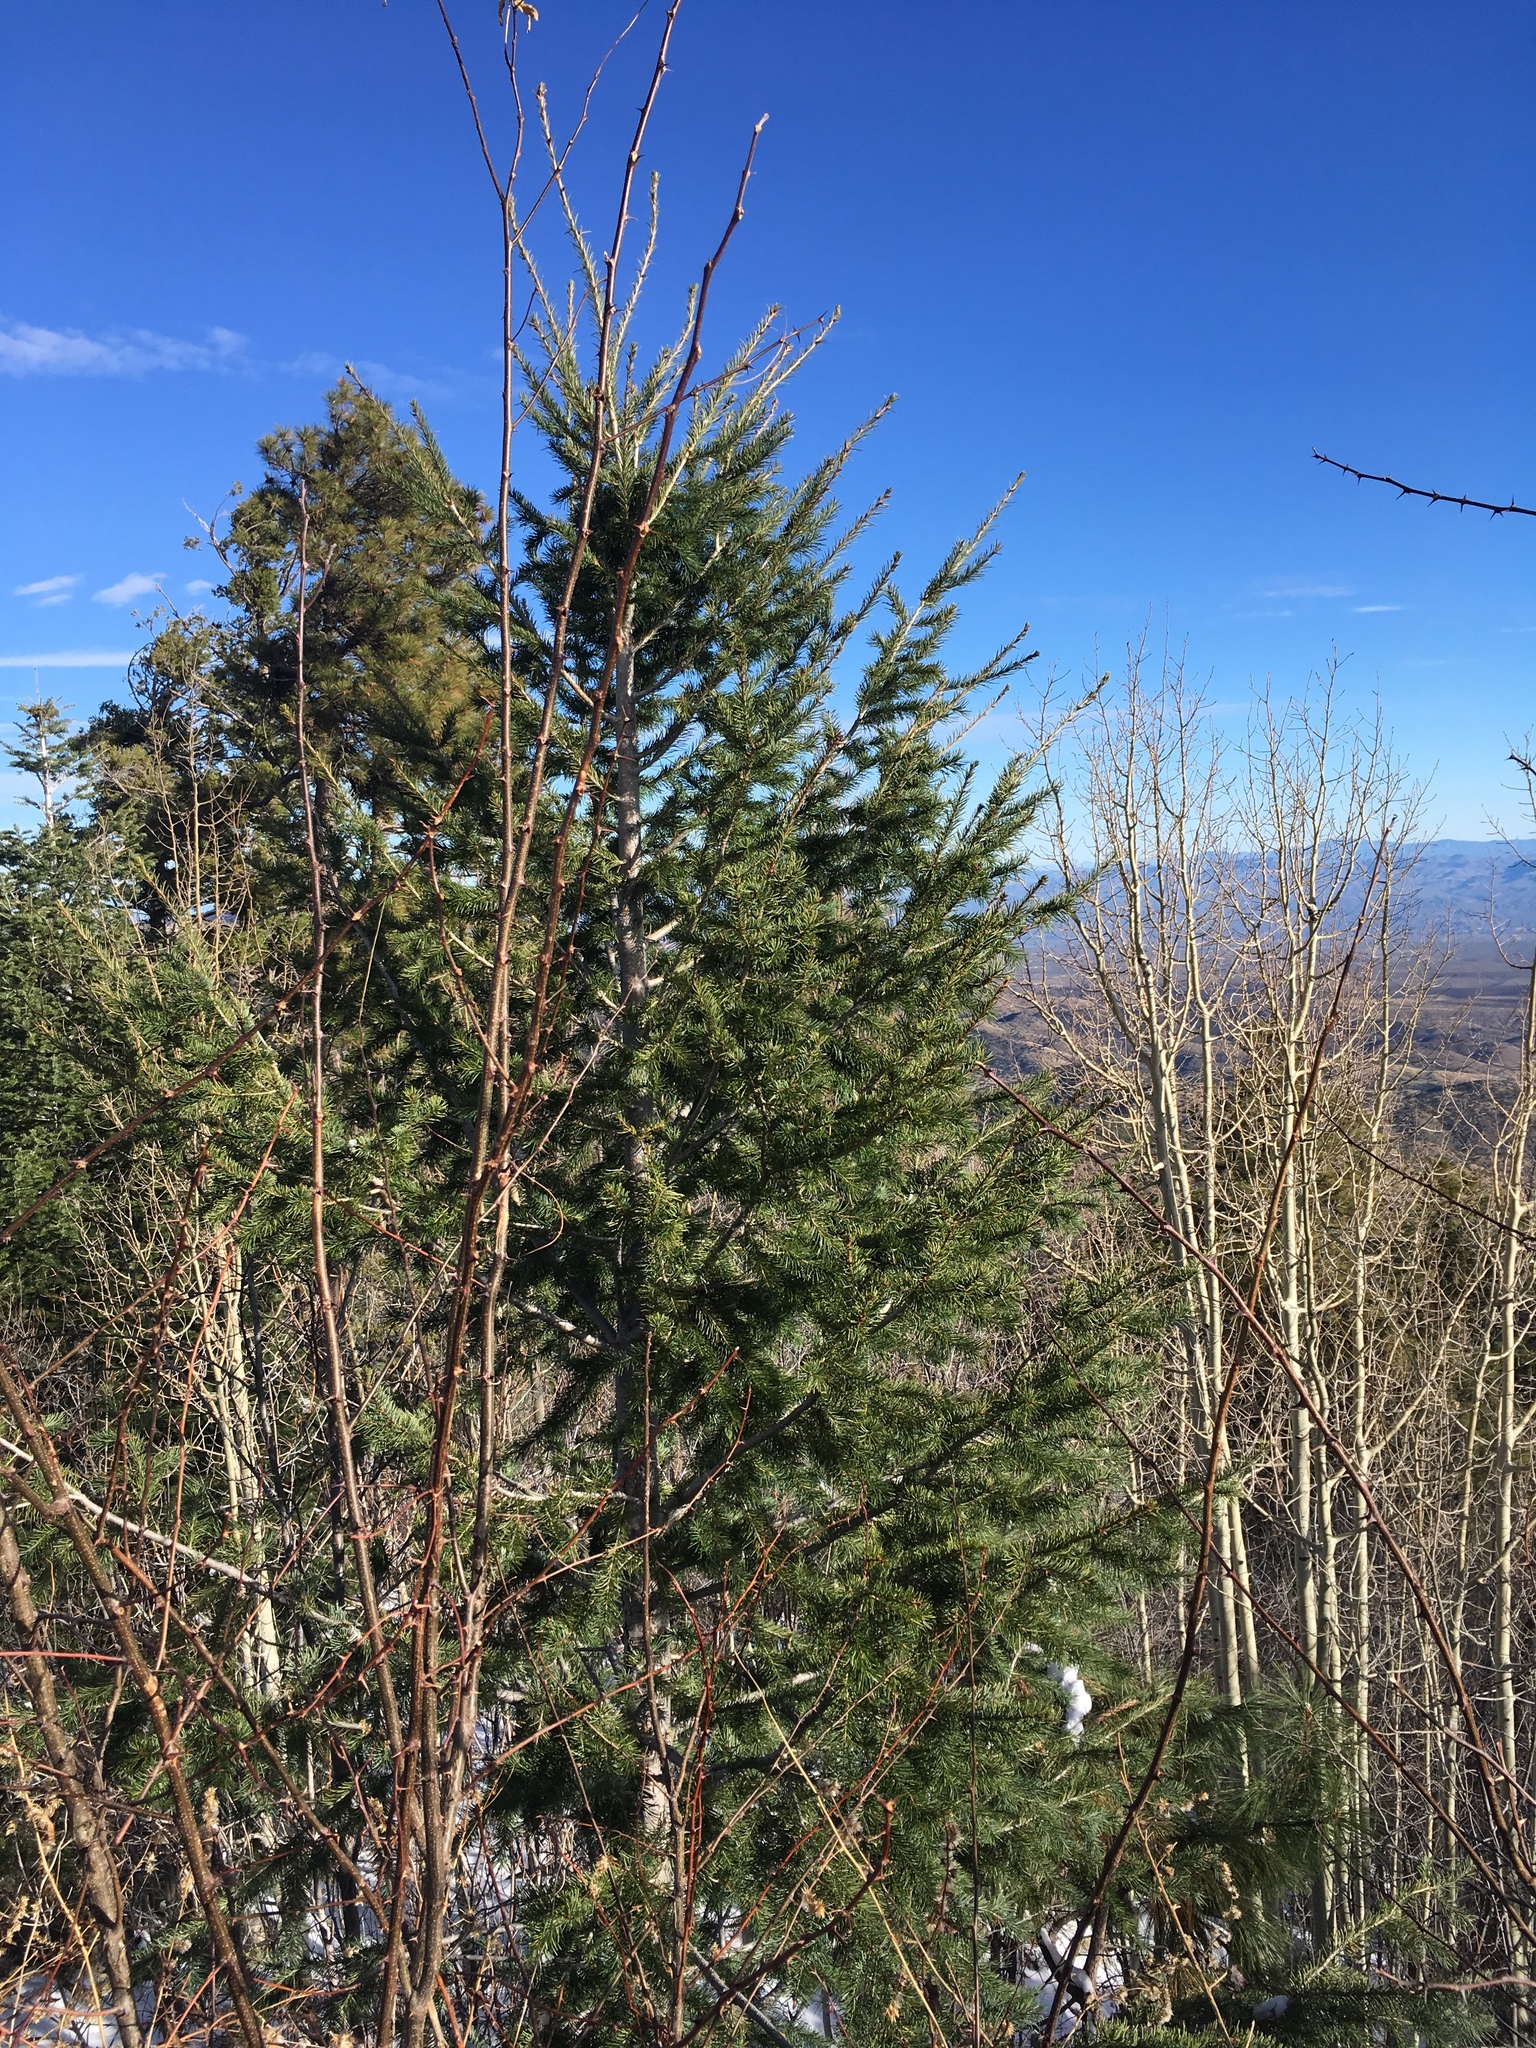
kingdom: Plantae
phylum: Tracheophyta
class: Pinopsida
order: Pinales
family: Pinaceae
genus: Pseudotsuga
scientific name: Pseudotsuga menziesii
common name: Douglas fir
